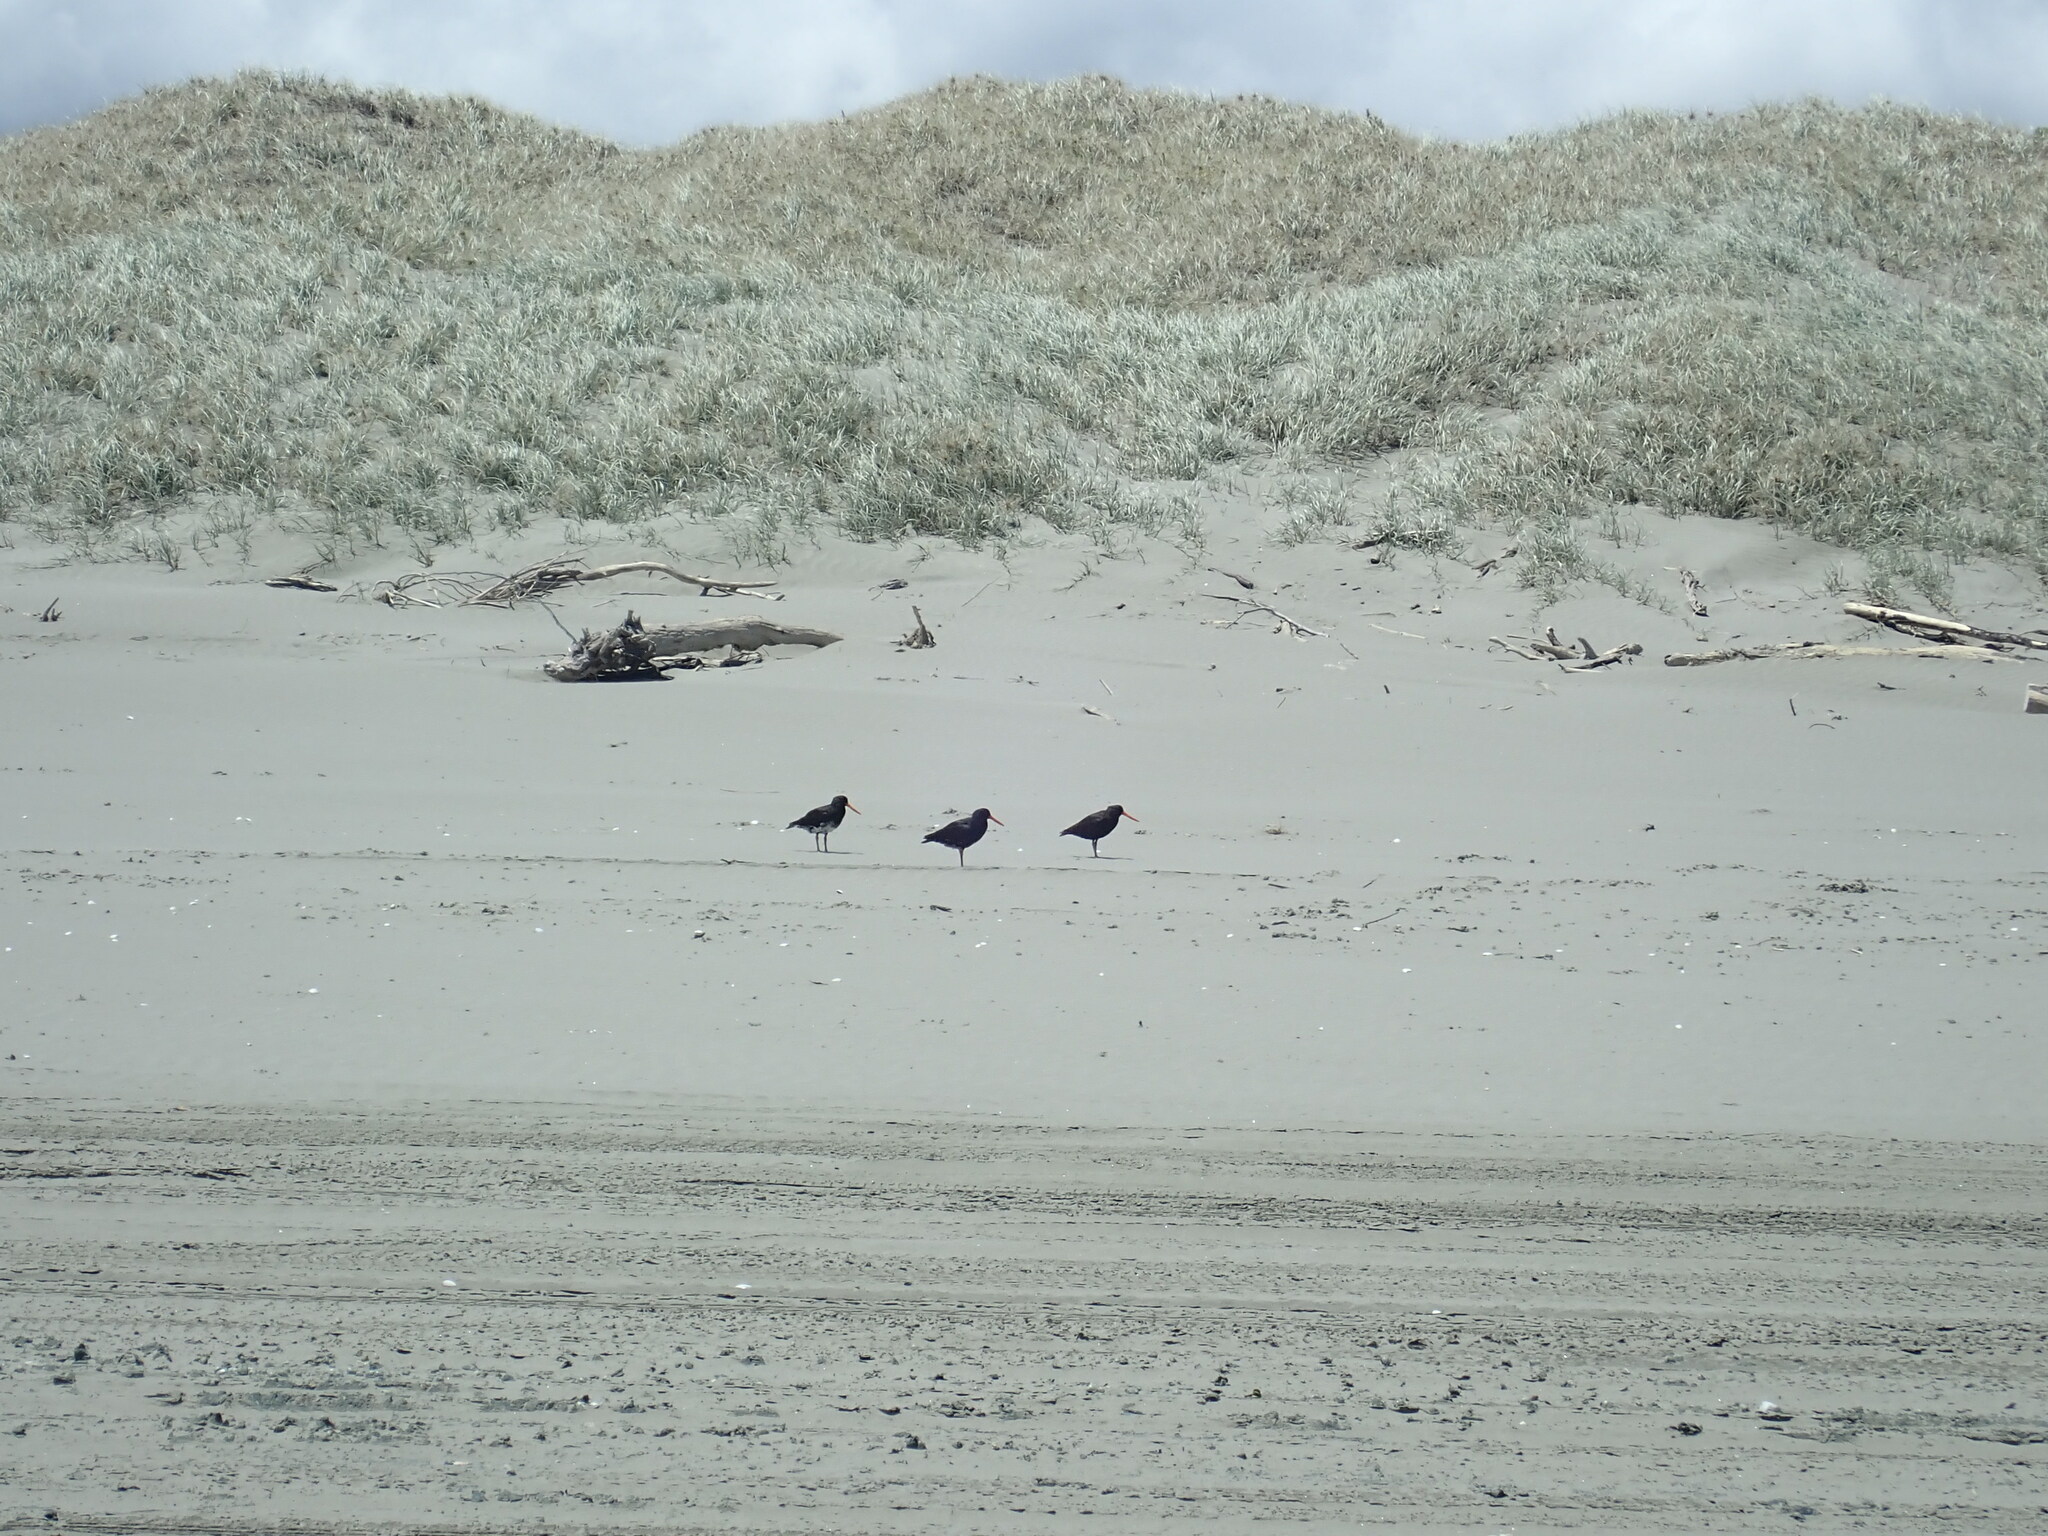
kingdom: Animalia
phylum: Chordata
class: Aves
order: Charadriiformes
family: Haematopodidae
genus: Haematopus
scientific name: Haematopus unicolor
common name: Variable oystercatcher
